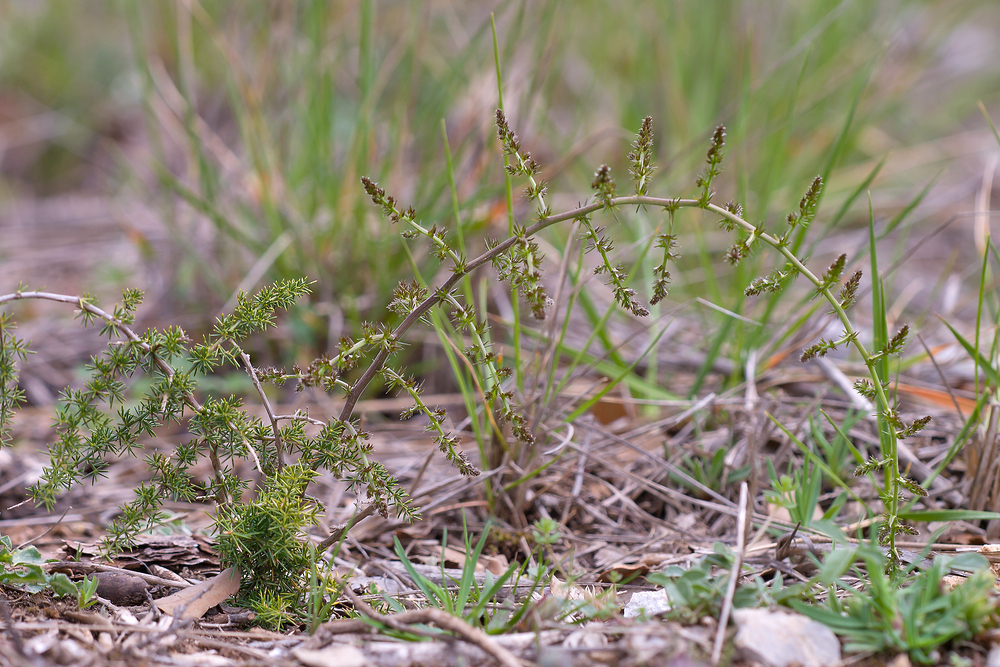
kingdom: Plantae
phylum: Tracheophyta
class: Liliopsida
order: Asparagales
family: Asparagaceae
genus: Asparagus
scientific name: Asparagus acutifolius
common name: Wild asparagus
